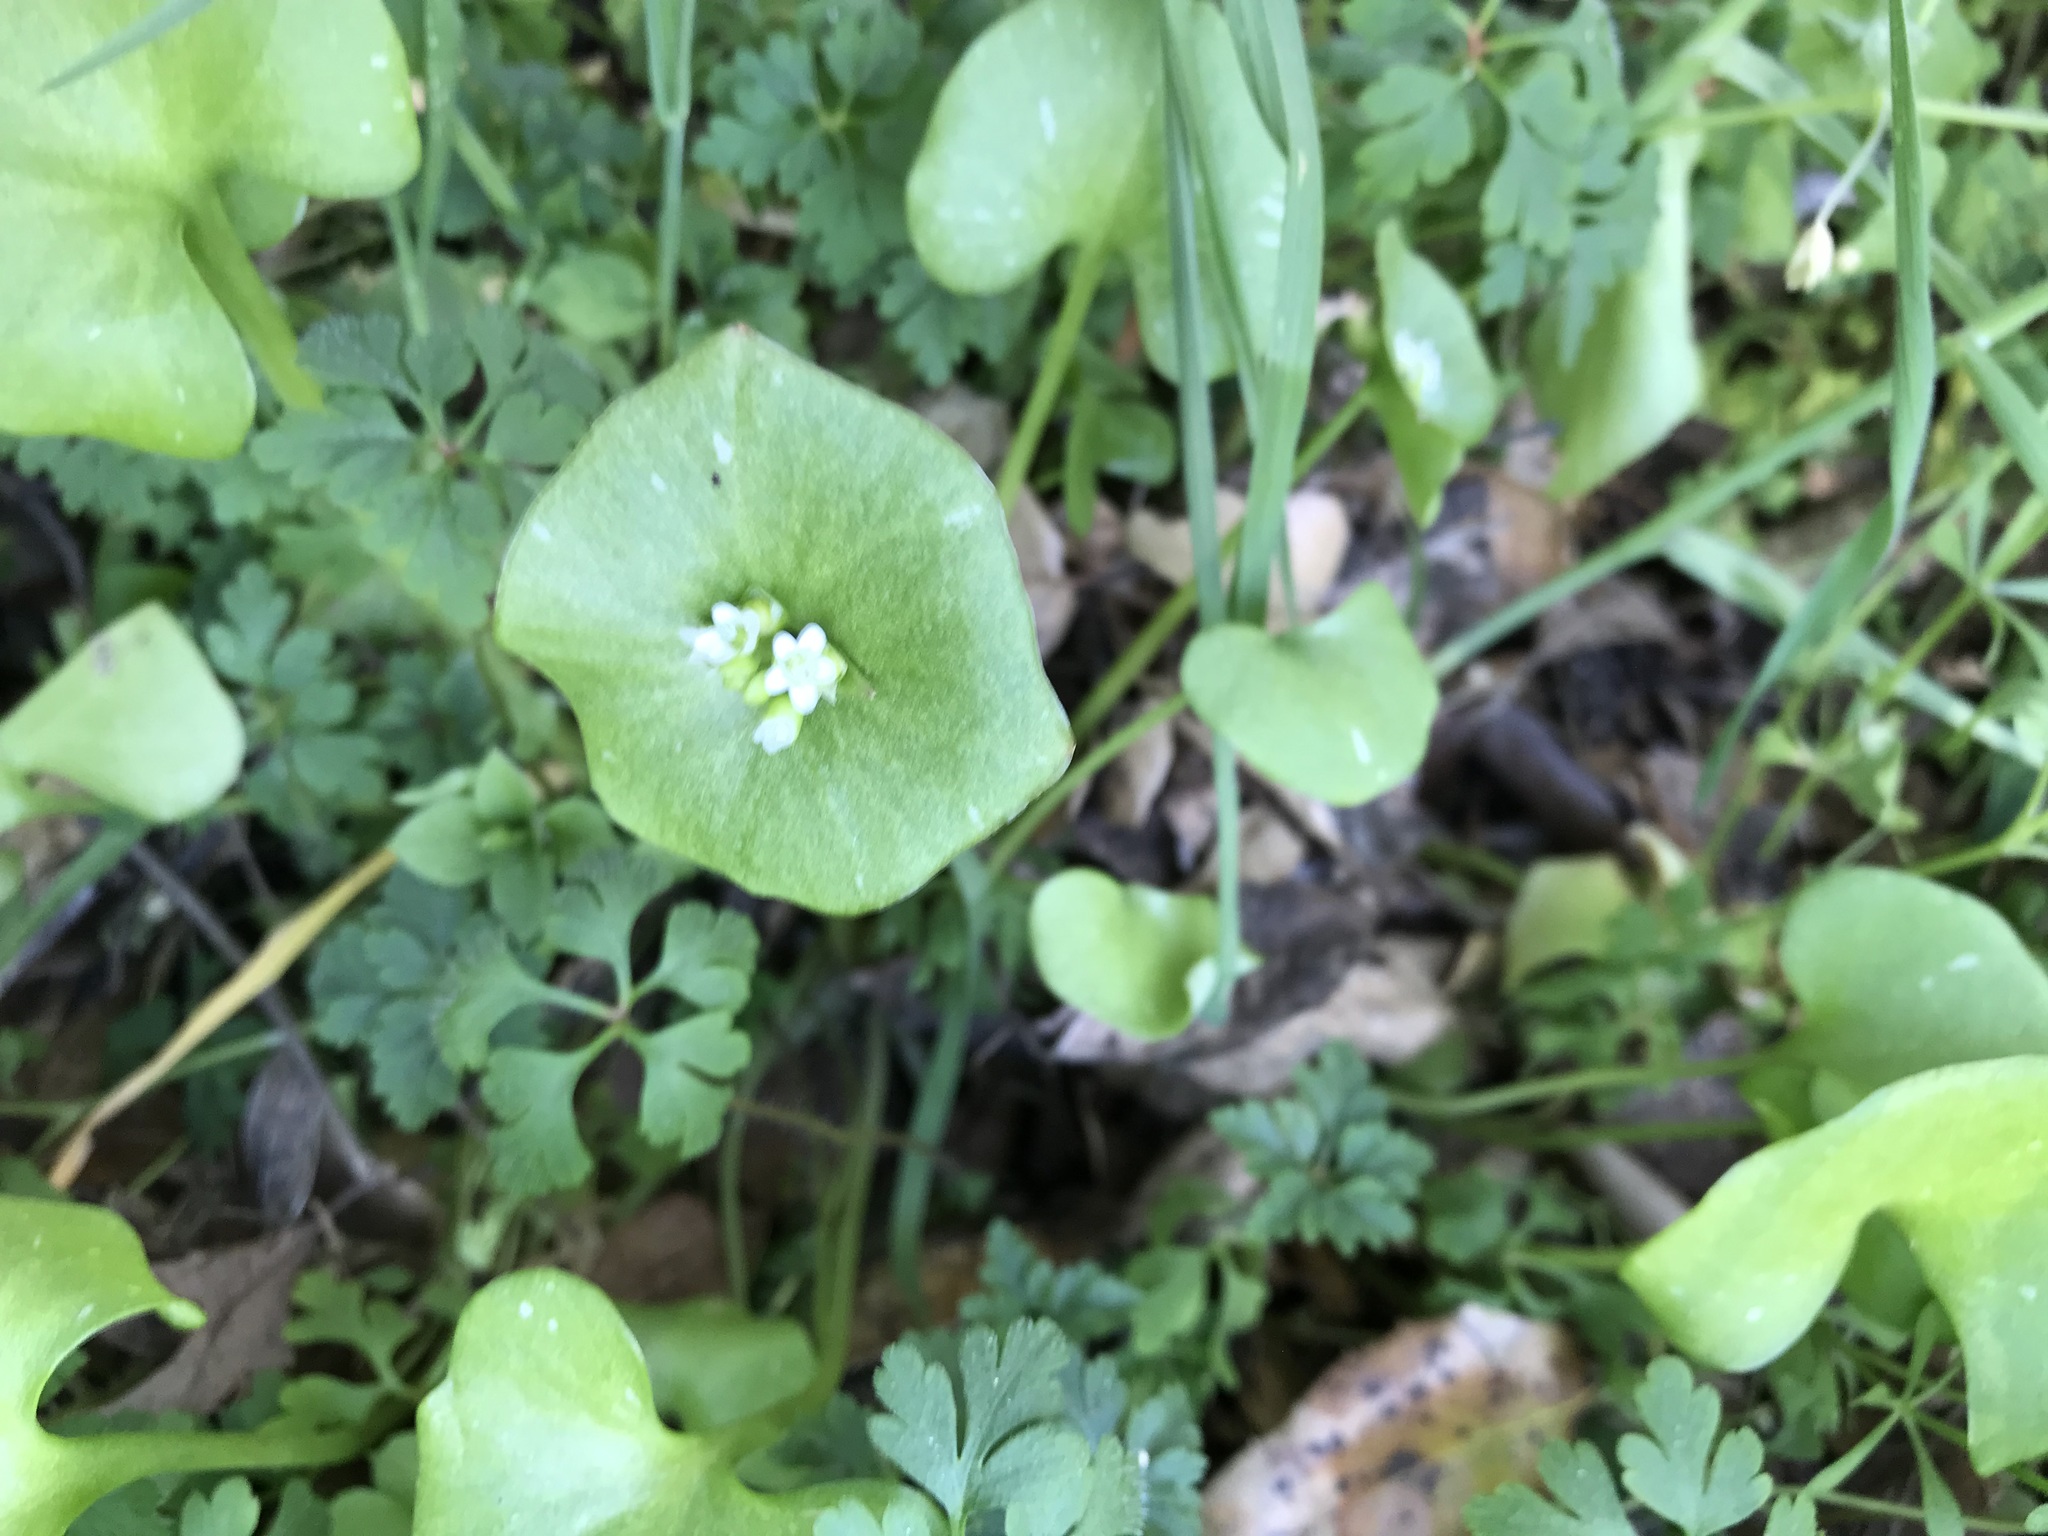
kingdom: Plantae
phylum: Tracheophyta
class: Magnoliopsida
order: Caryophyllales
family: Montiaceae
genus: Claytonia
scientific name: Claytonia perfoliata
